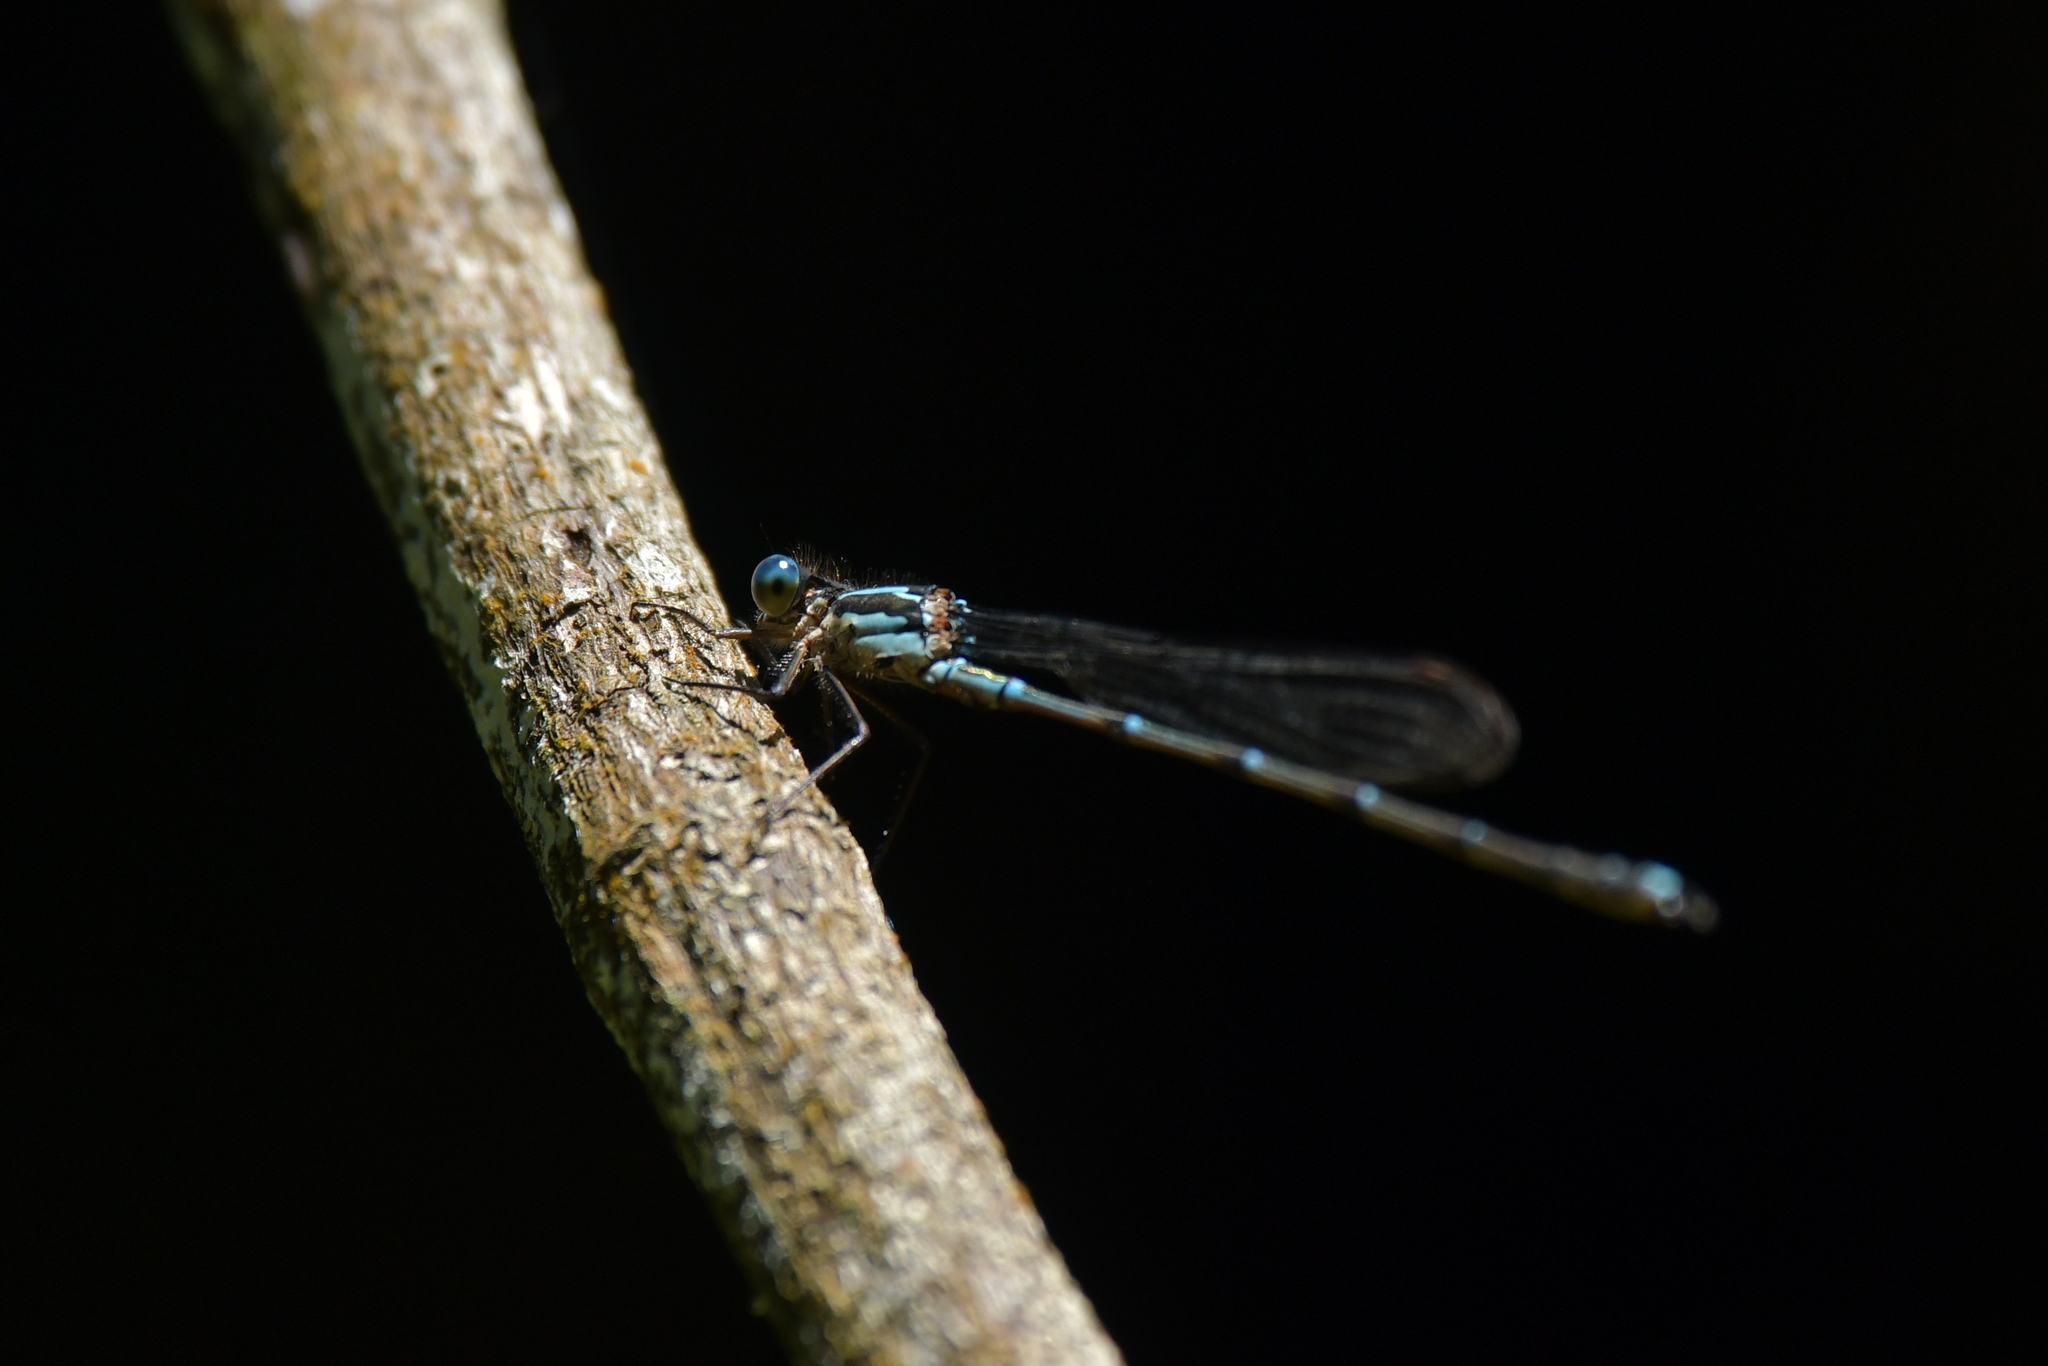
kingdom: Animalia
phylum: Arthropoda
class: Insecta
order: Odonata
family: Lestidae
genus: Austrolestes
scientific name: Austrolestes colensonis
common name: Blue damselfly
